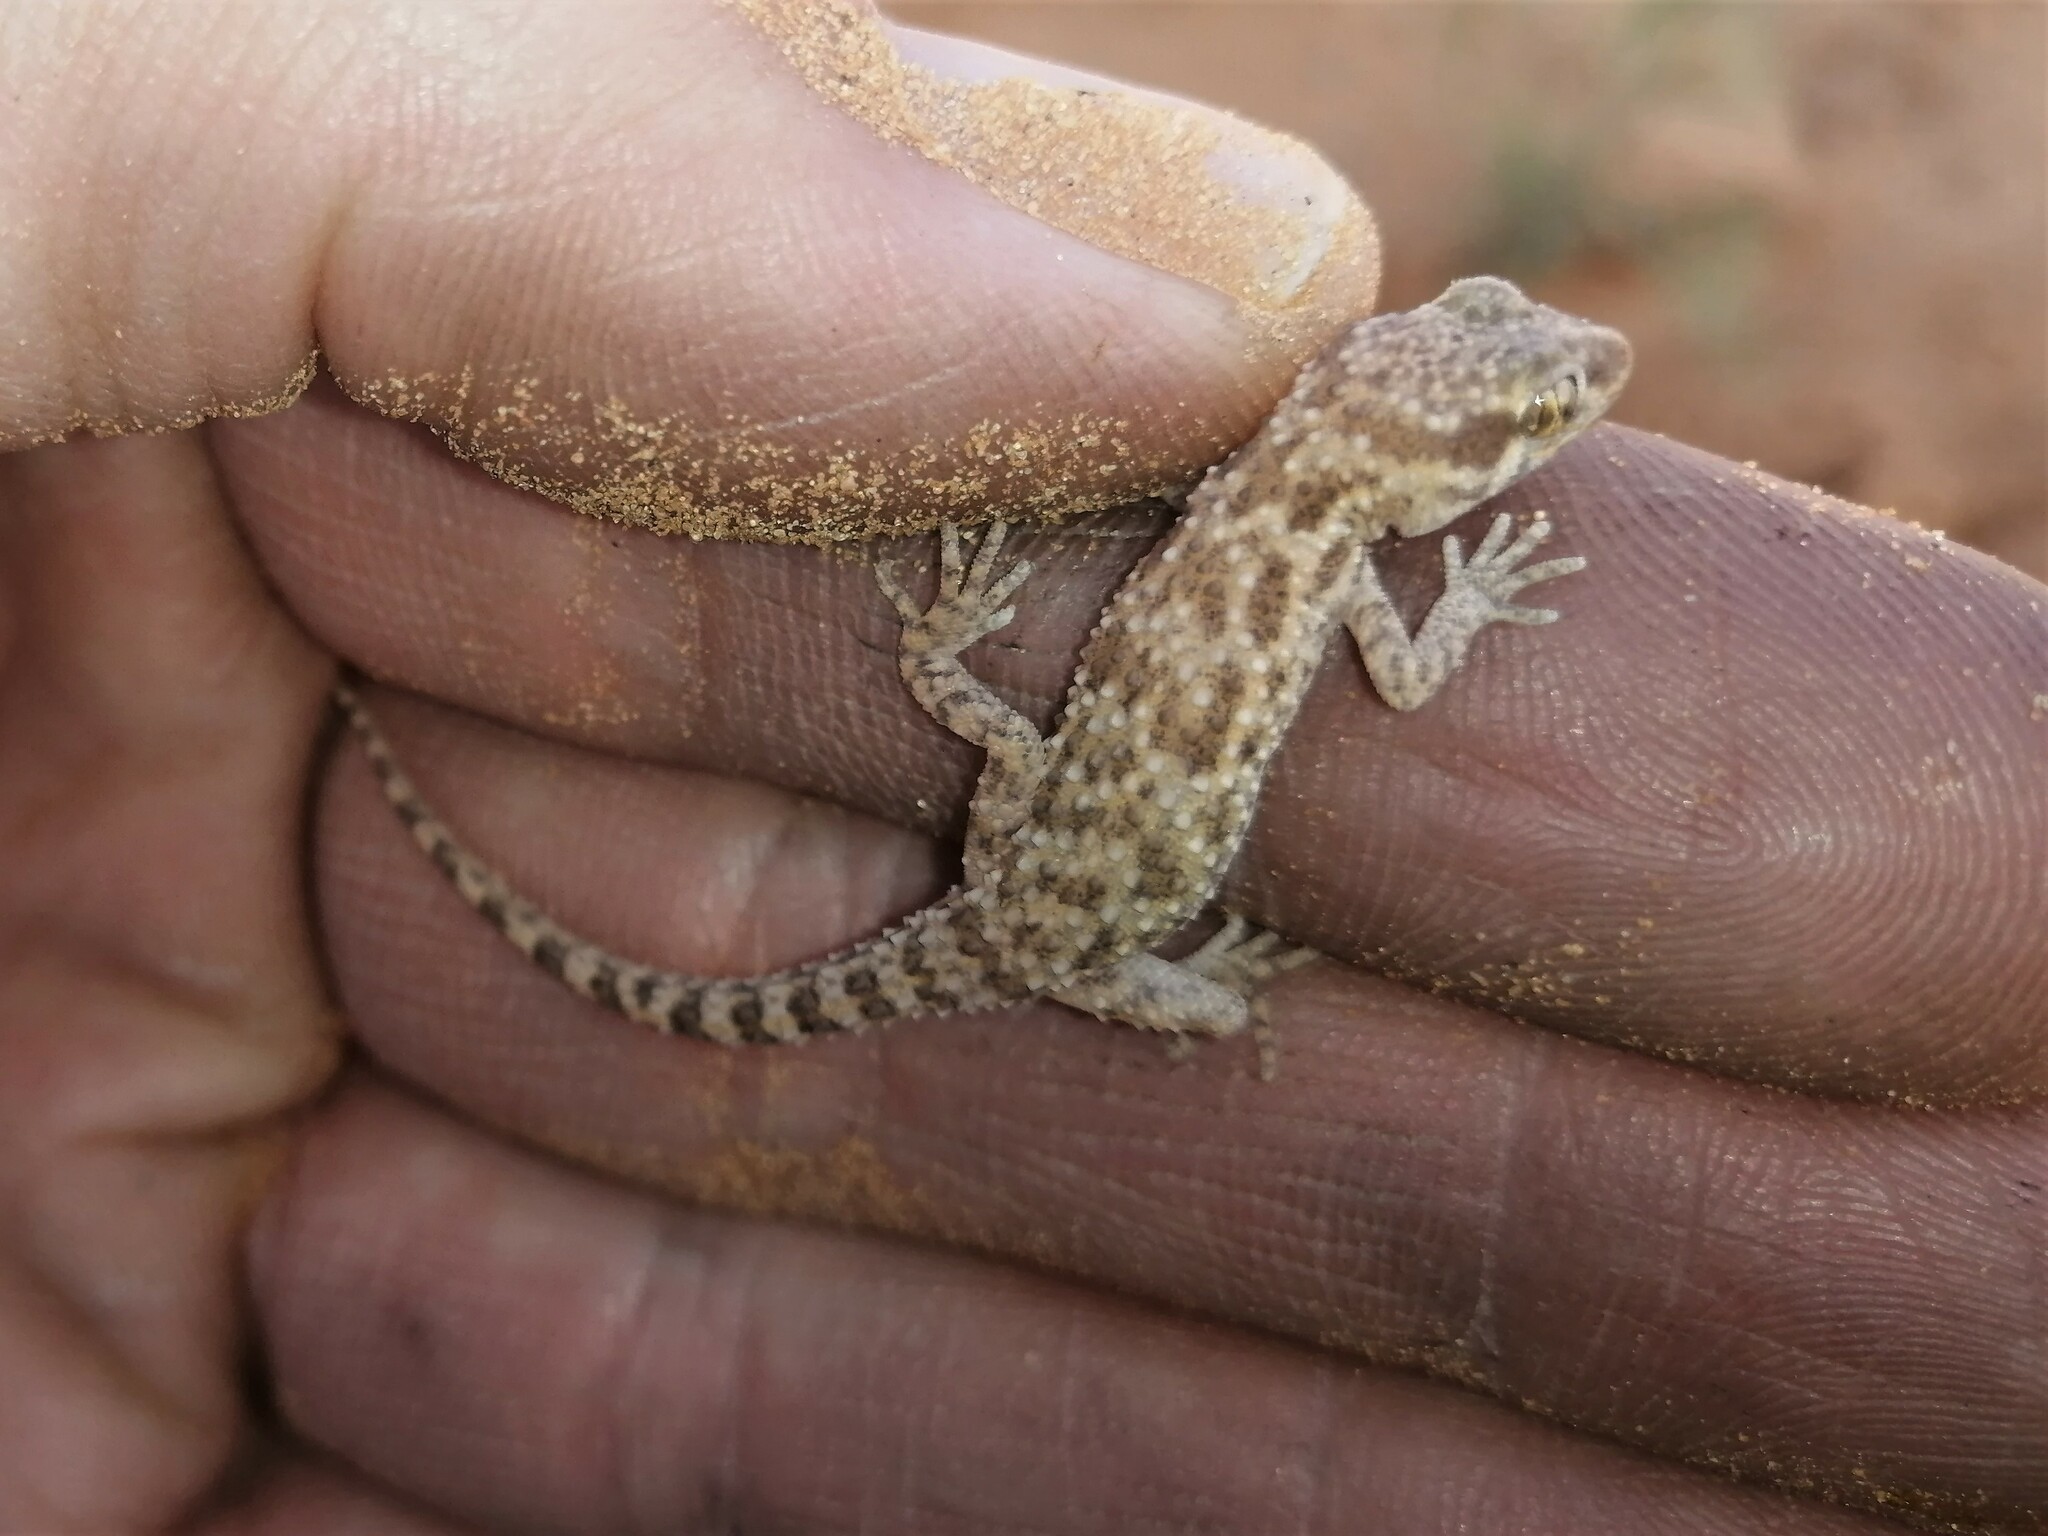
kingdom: Animalia
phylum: Chordata
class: Squamata
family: Gekkonidae
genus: Bunopus
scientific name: Bunopus tuberculatus
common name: Southern tuberculated gecko
